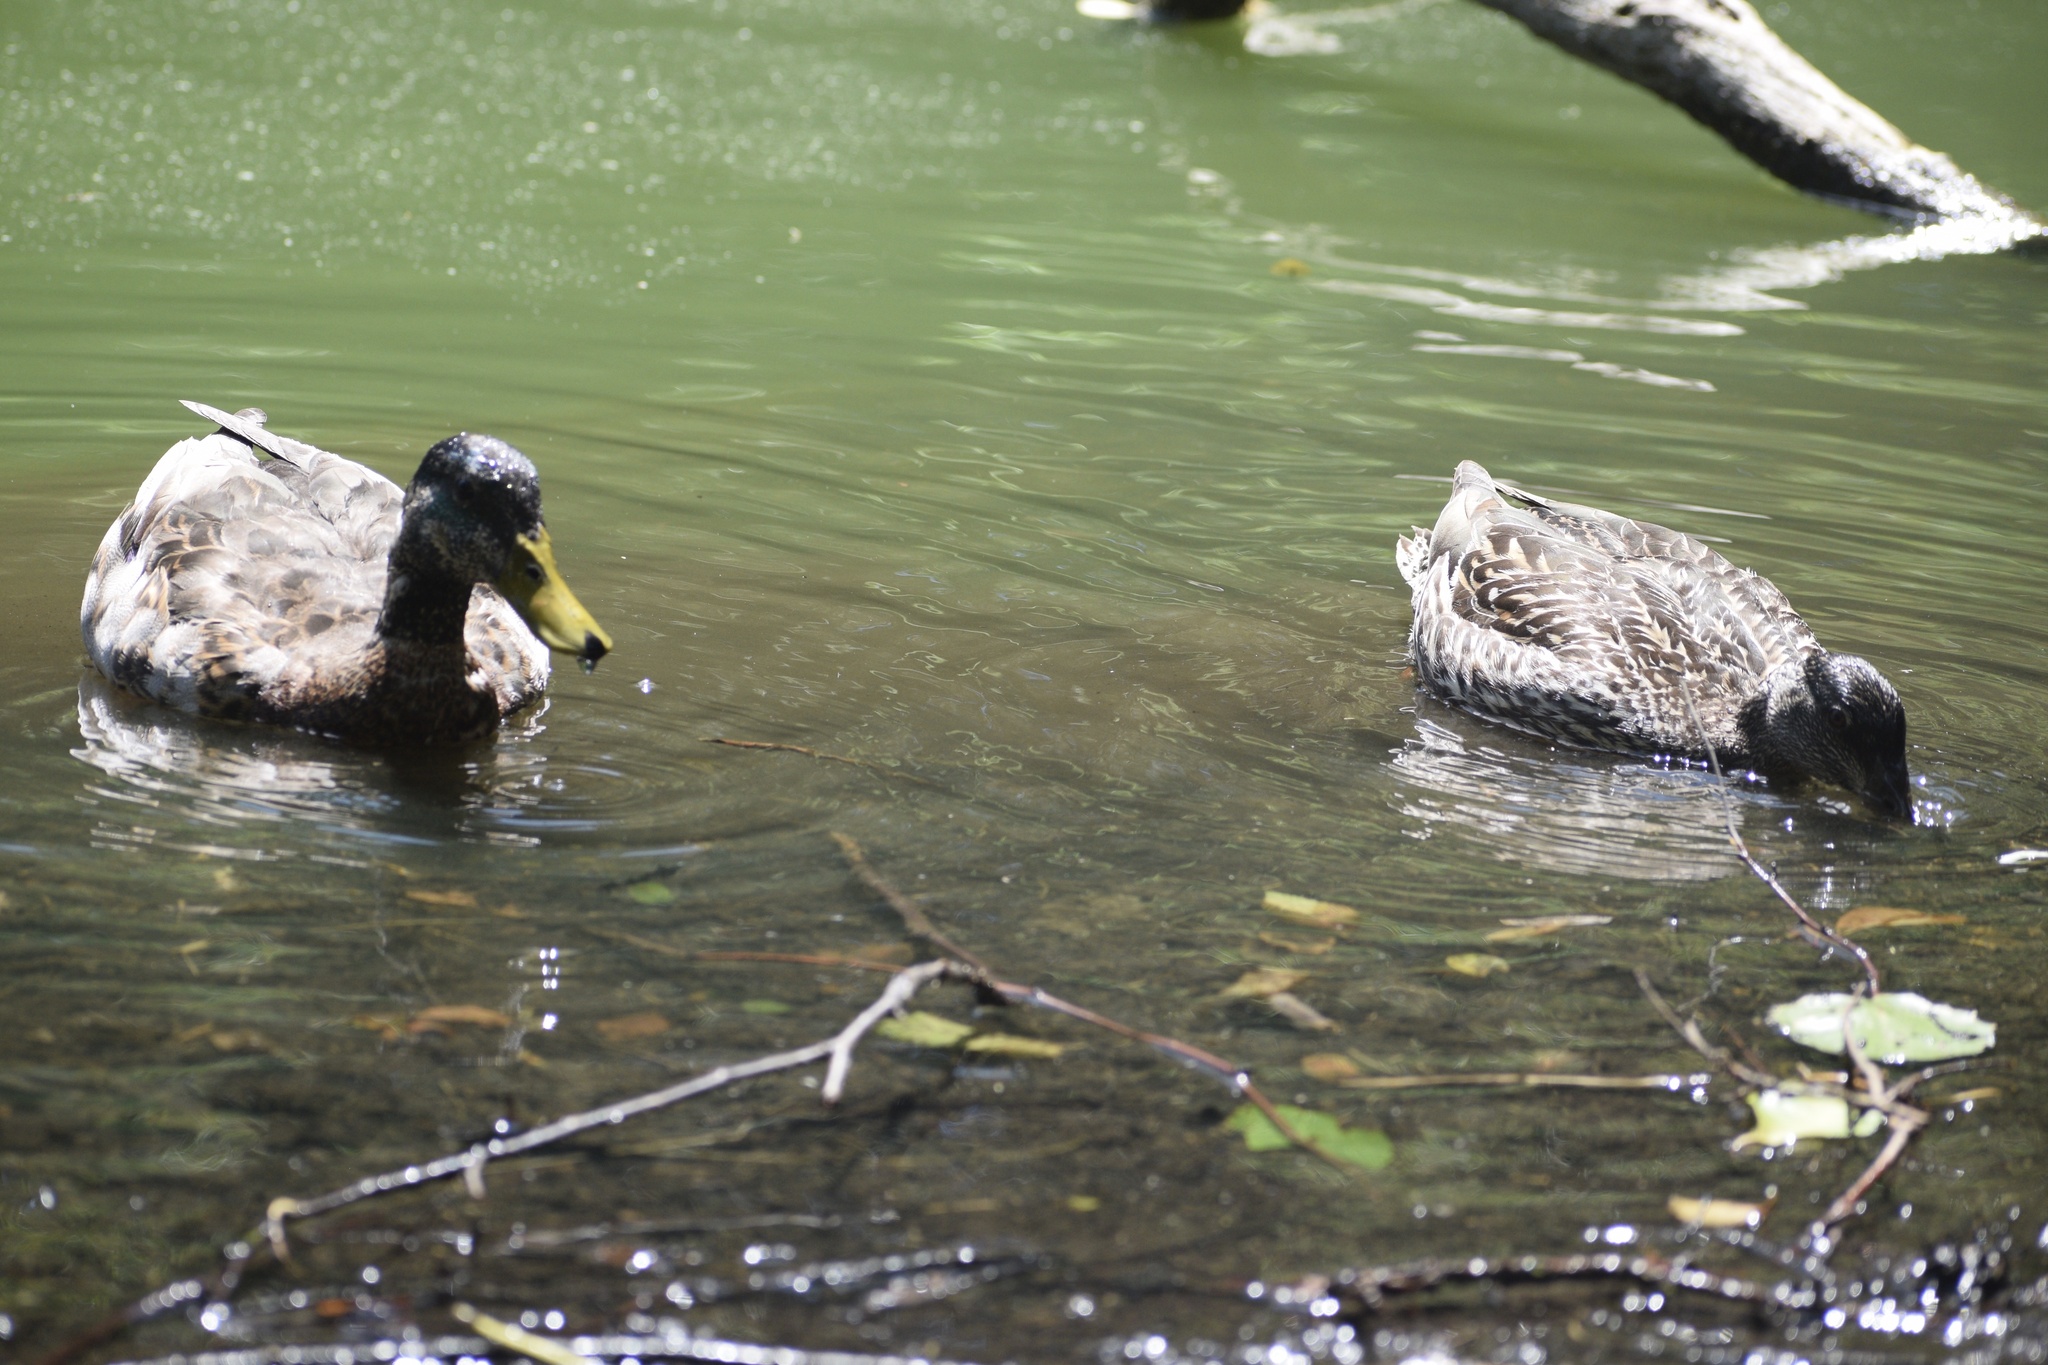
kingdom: Animalia
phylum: Chordata
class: Aves
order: Anseriformes
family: Anatidae
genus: Anas
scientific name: Anas platyrhynchos
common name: Mallard
